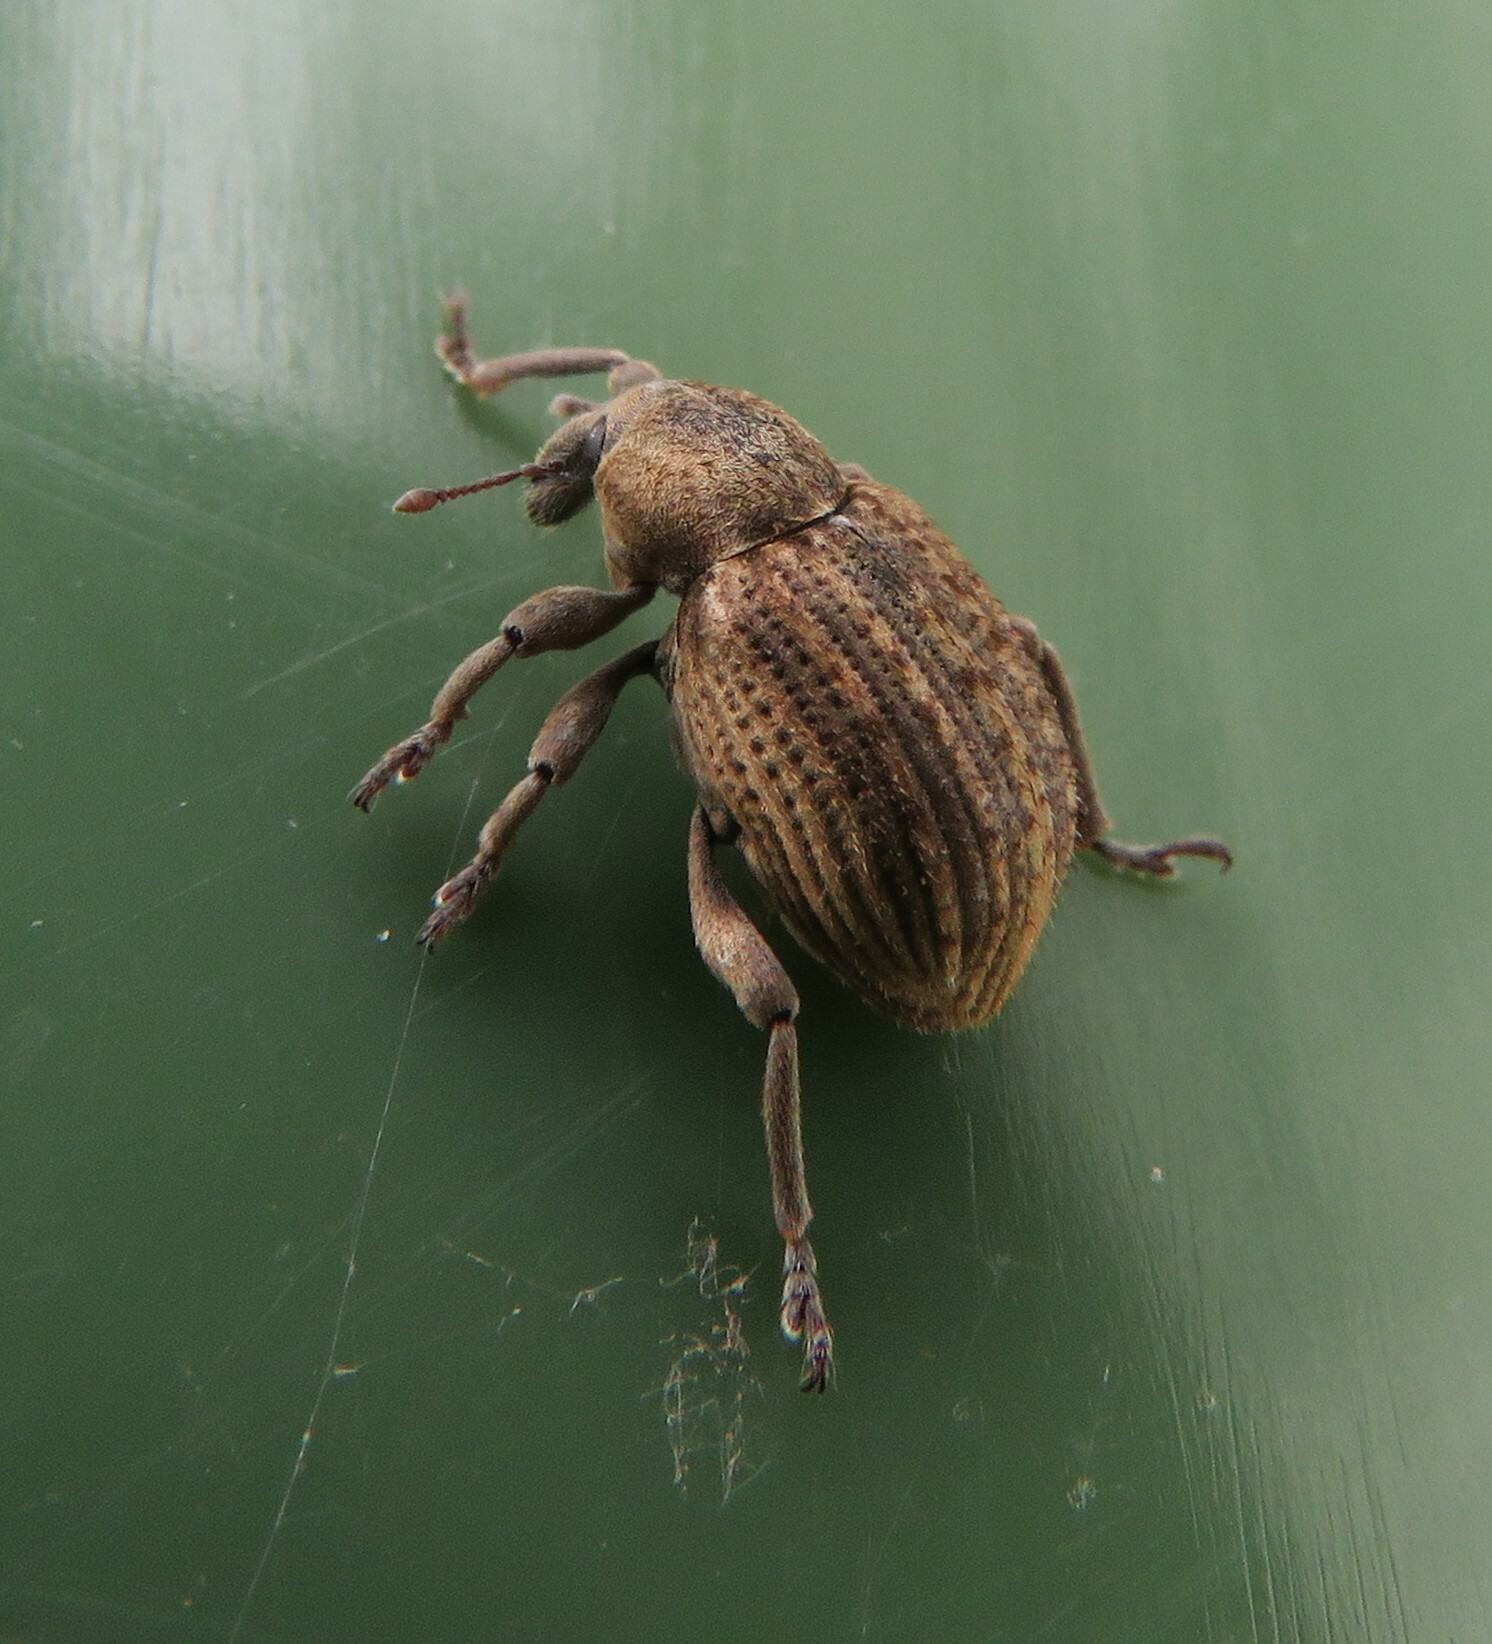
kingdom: Animalia
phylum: Arthropoda
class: Insecta
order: Coleoptera
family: Curculionidae
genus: Brachypera
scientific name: Brachypera zoilus
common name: Clover leaf weevil
